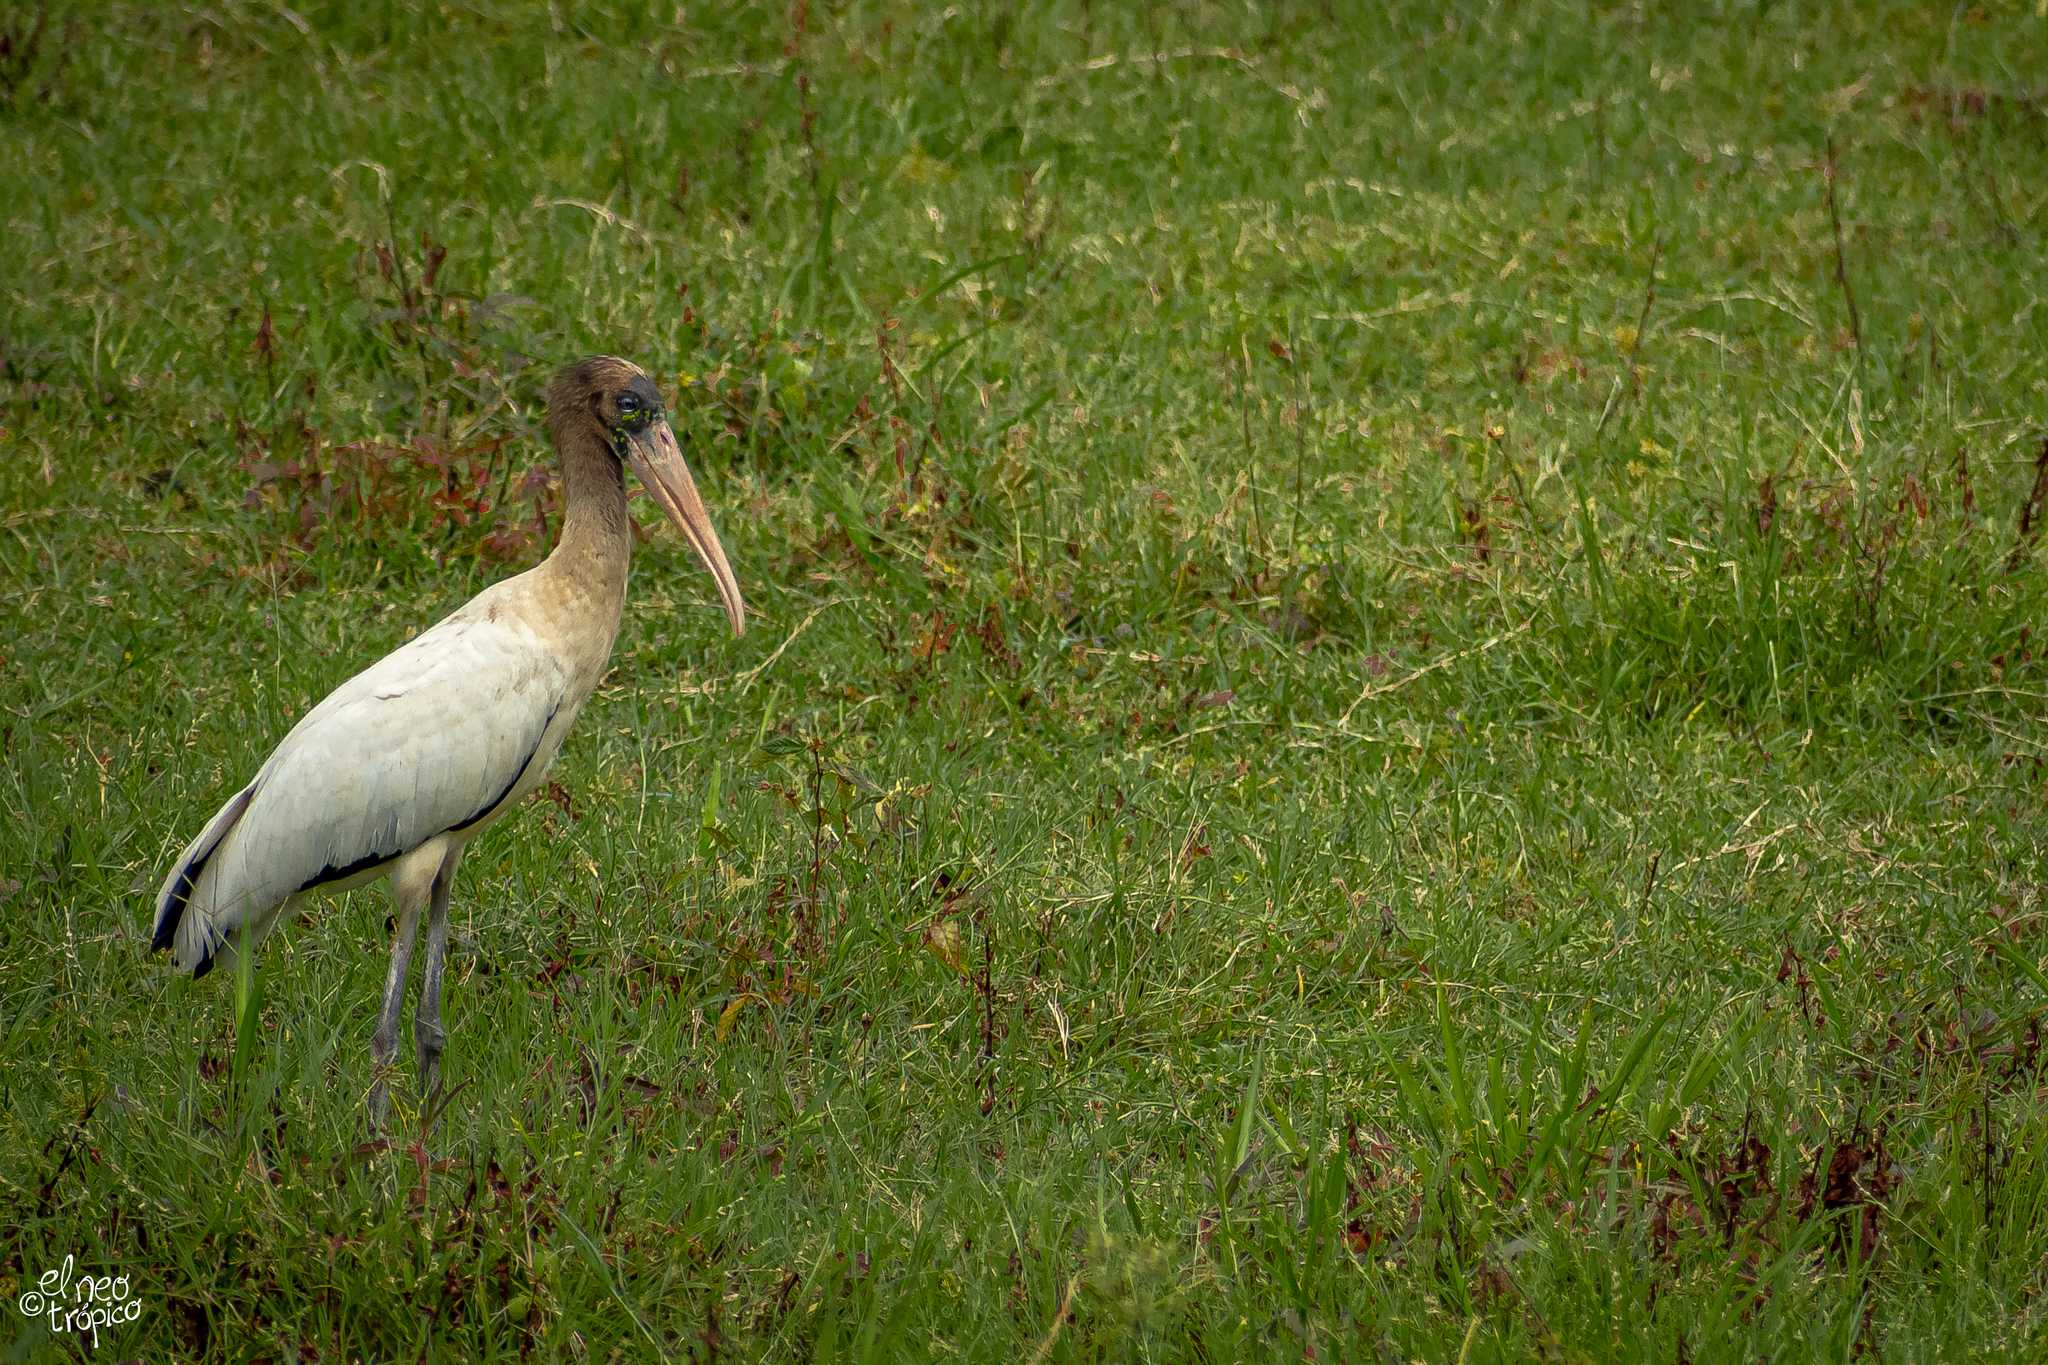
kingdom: Animalia
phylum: Chordata
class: Aves
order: Ciconiiformes
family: Ciconiidae
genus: Mycteria
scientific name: Mycteria americana
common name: Wood stork
